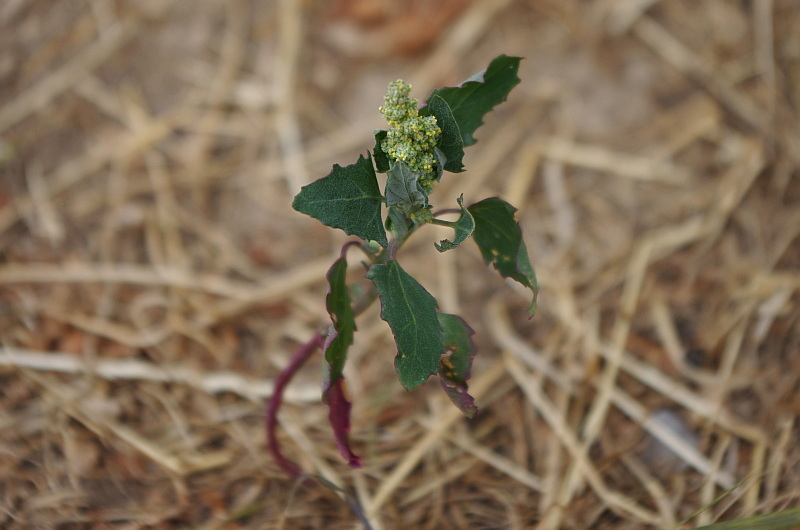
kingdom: Plantae
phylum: Tracheophyta
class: Magnoliopsida
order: Caryophyllales
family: Amaranthaceae
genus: Chenopodium
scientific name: Chenopodium album
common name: Fat-hen
